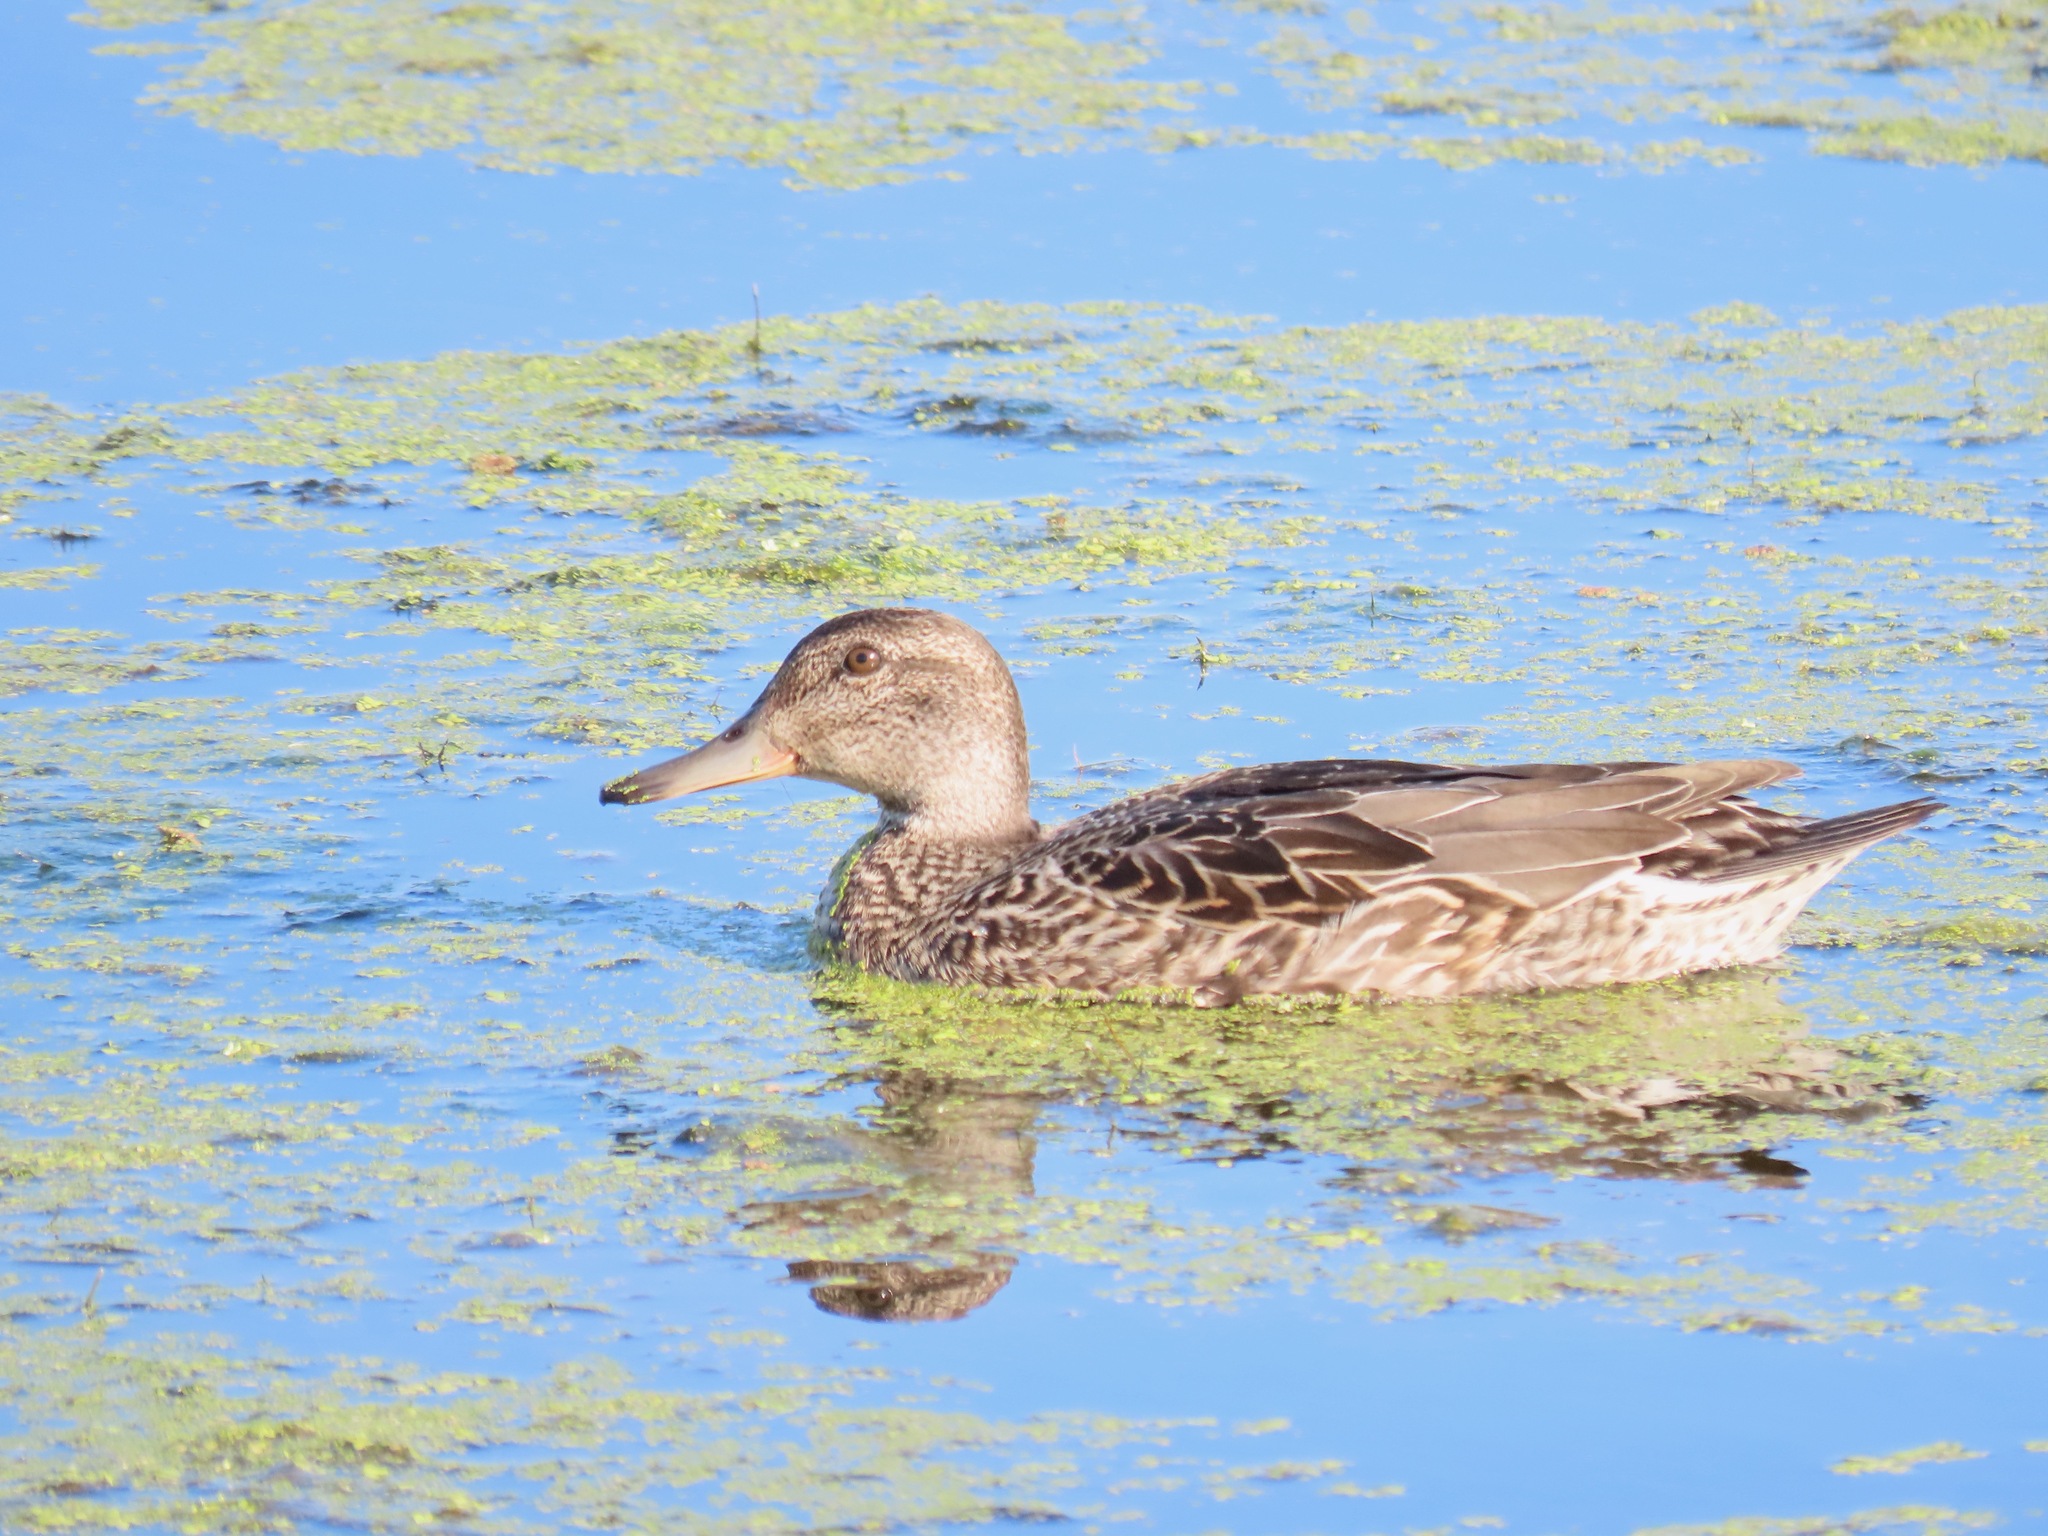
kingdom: Animalia
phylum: Chordata
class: Aves
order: Anseriformes
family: Anatidae
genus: Anas
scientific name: Anas crecca
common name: Eurasian teal
